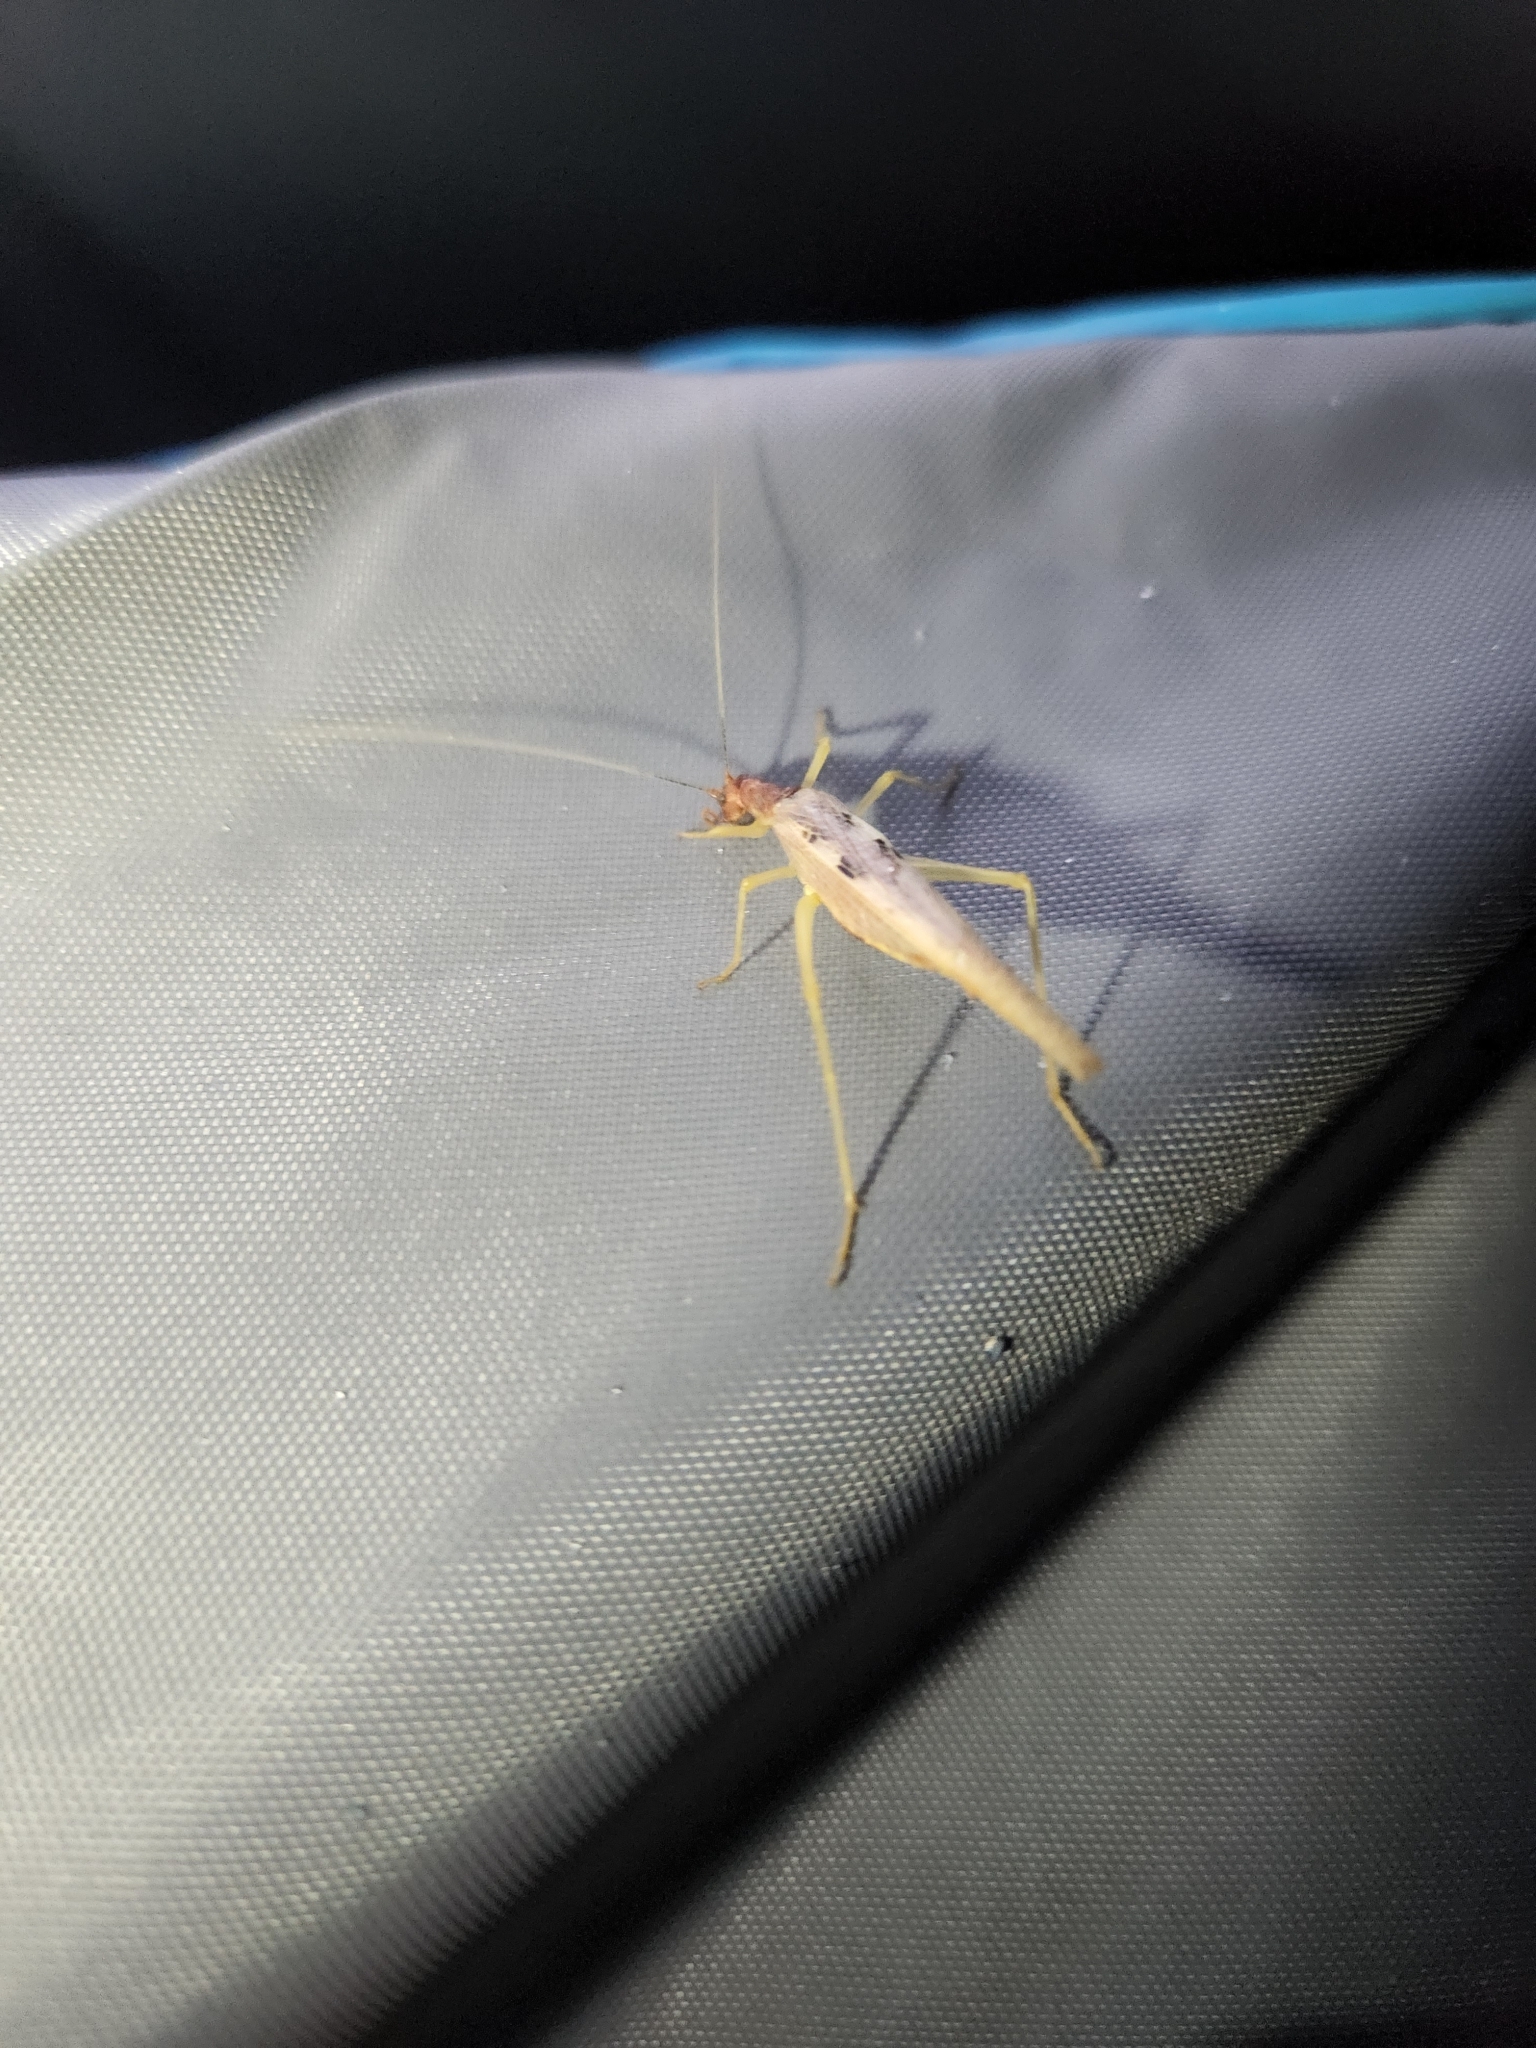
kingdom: Animalia
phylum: Arthropoda
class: Insecta
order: Orthoptera
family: Gryllidae
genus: Neoxabea
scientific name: Neoxabea bipunctata
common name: Two-spotted tree cricket
